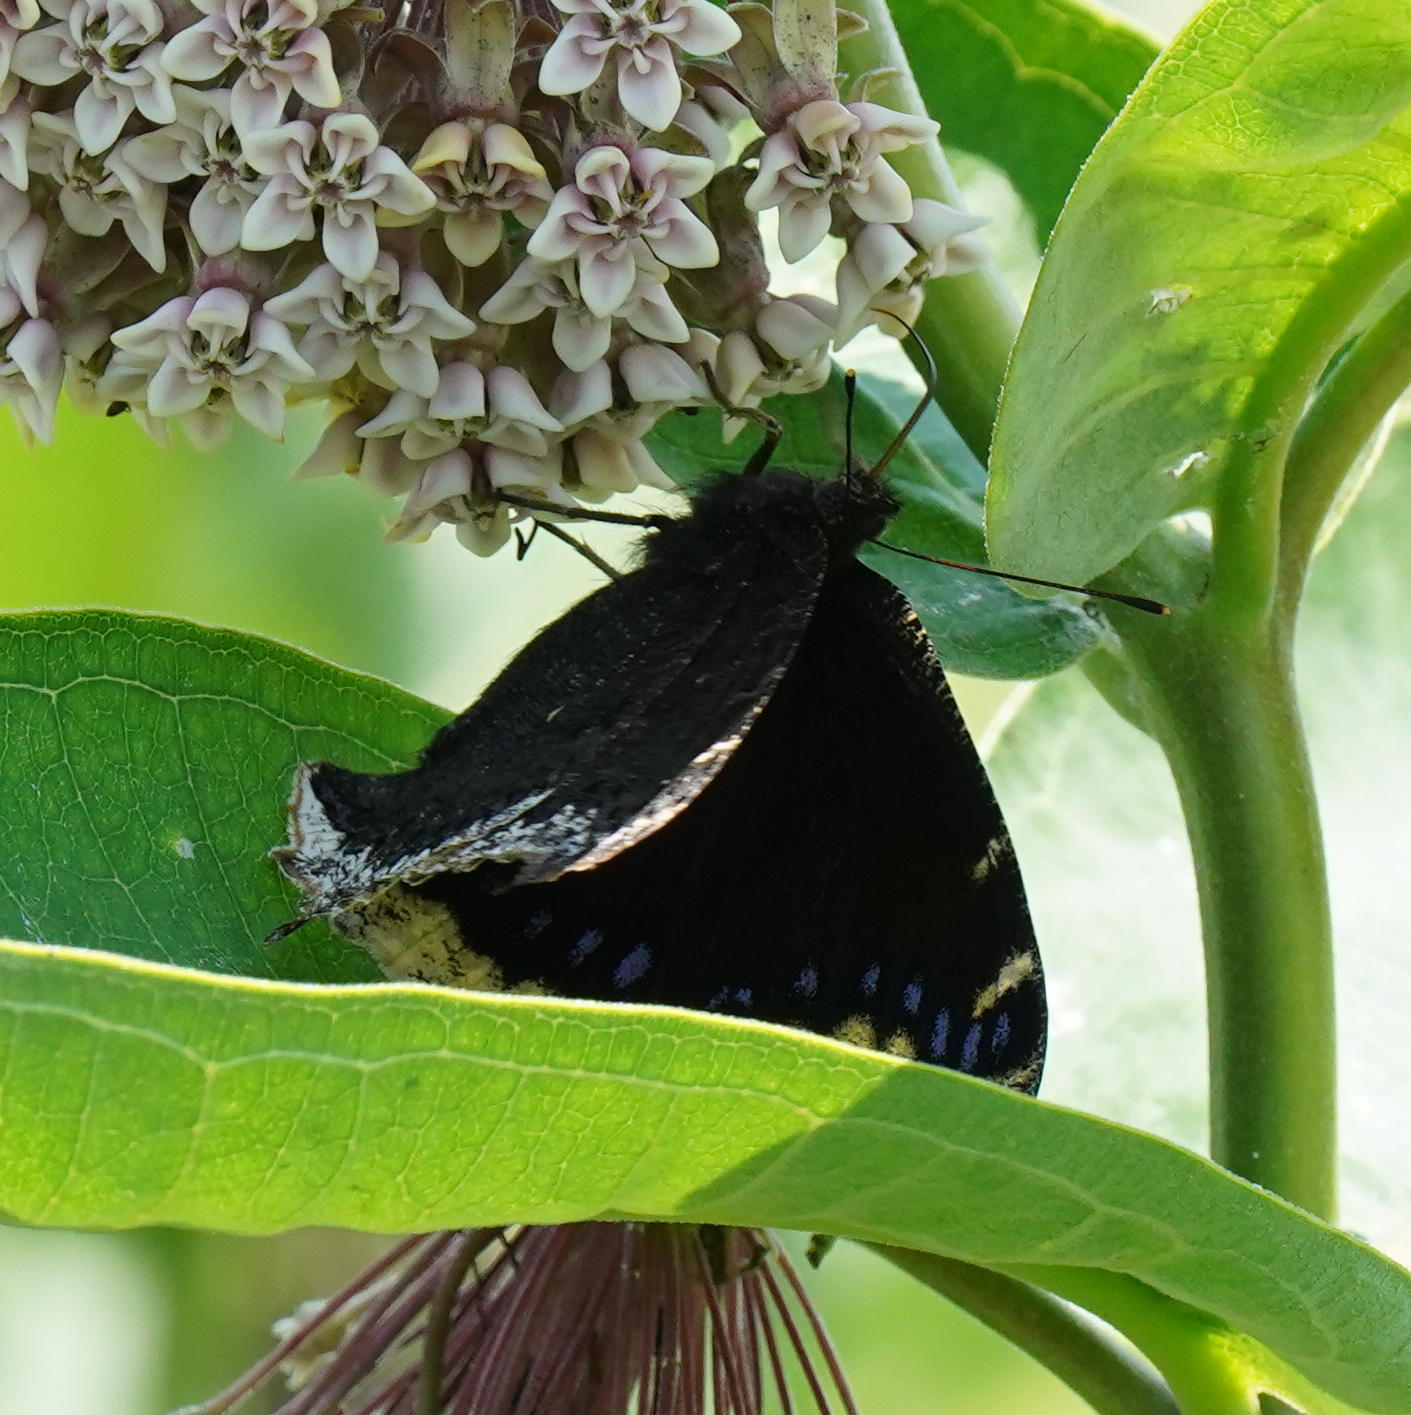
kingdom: Animalia
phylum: Arthropoda
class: Insecta
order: Lepidoptera
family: Nymphalidae
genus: Nymphalis
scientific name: Nymphalis antiopa
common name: Camberwell beauty
